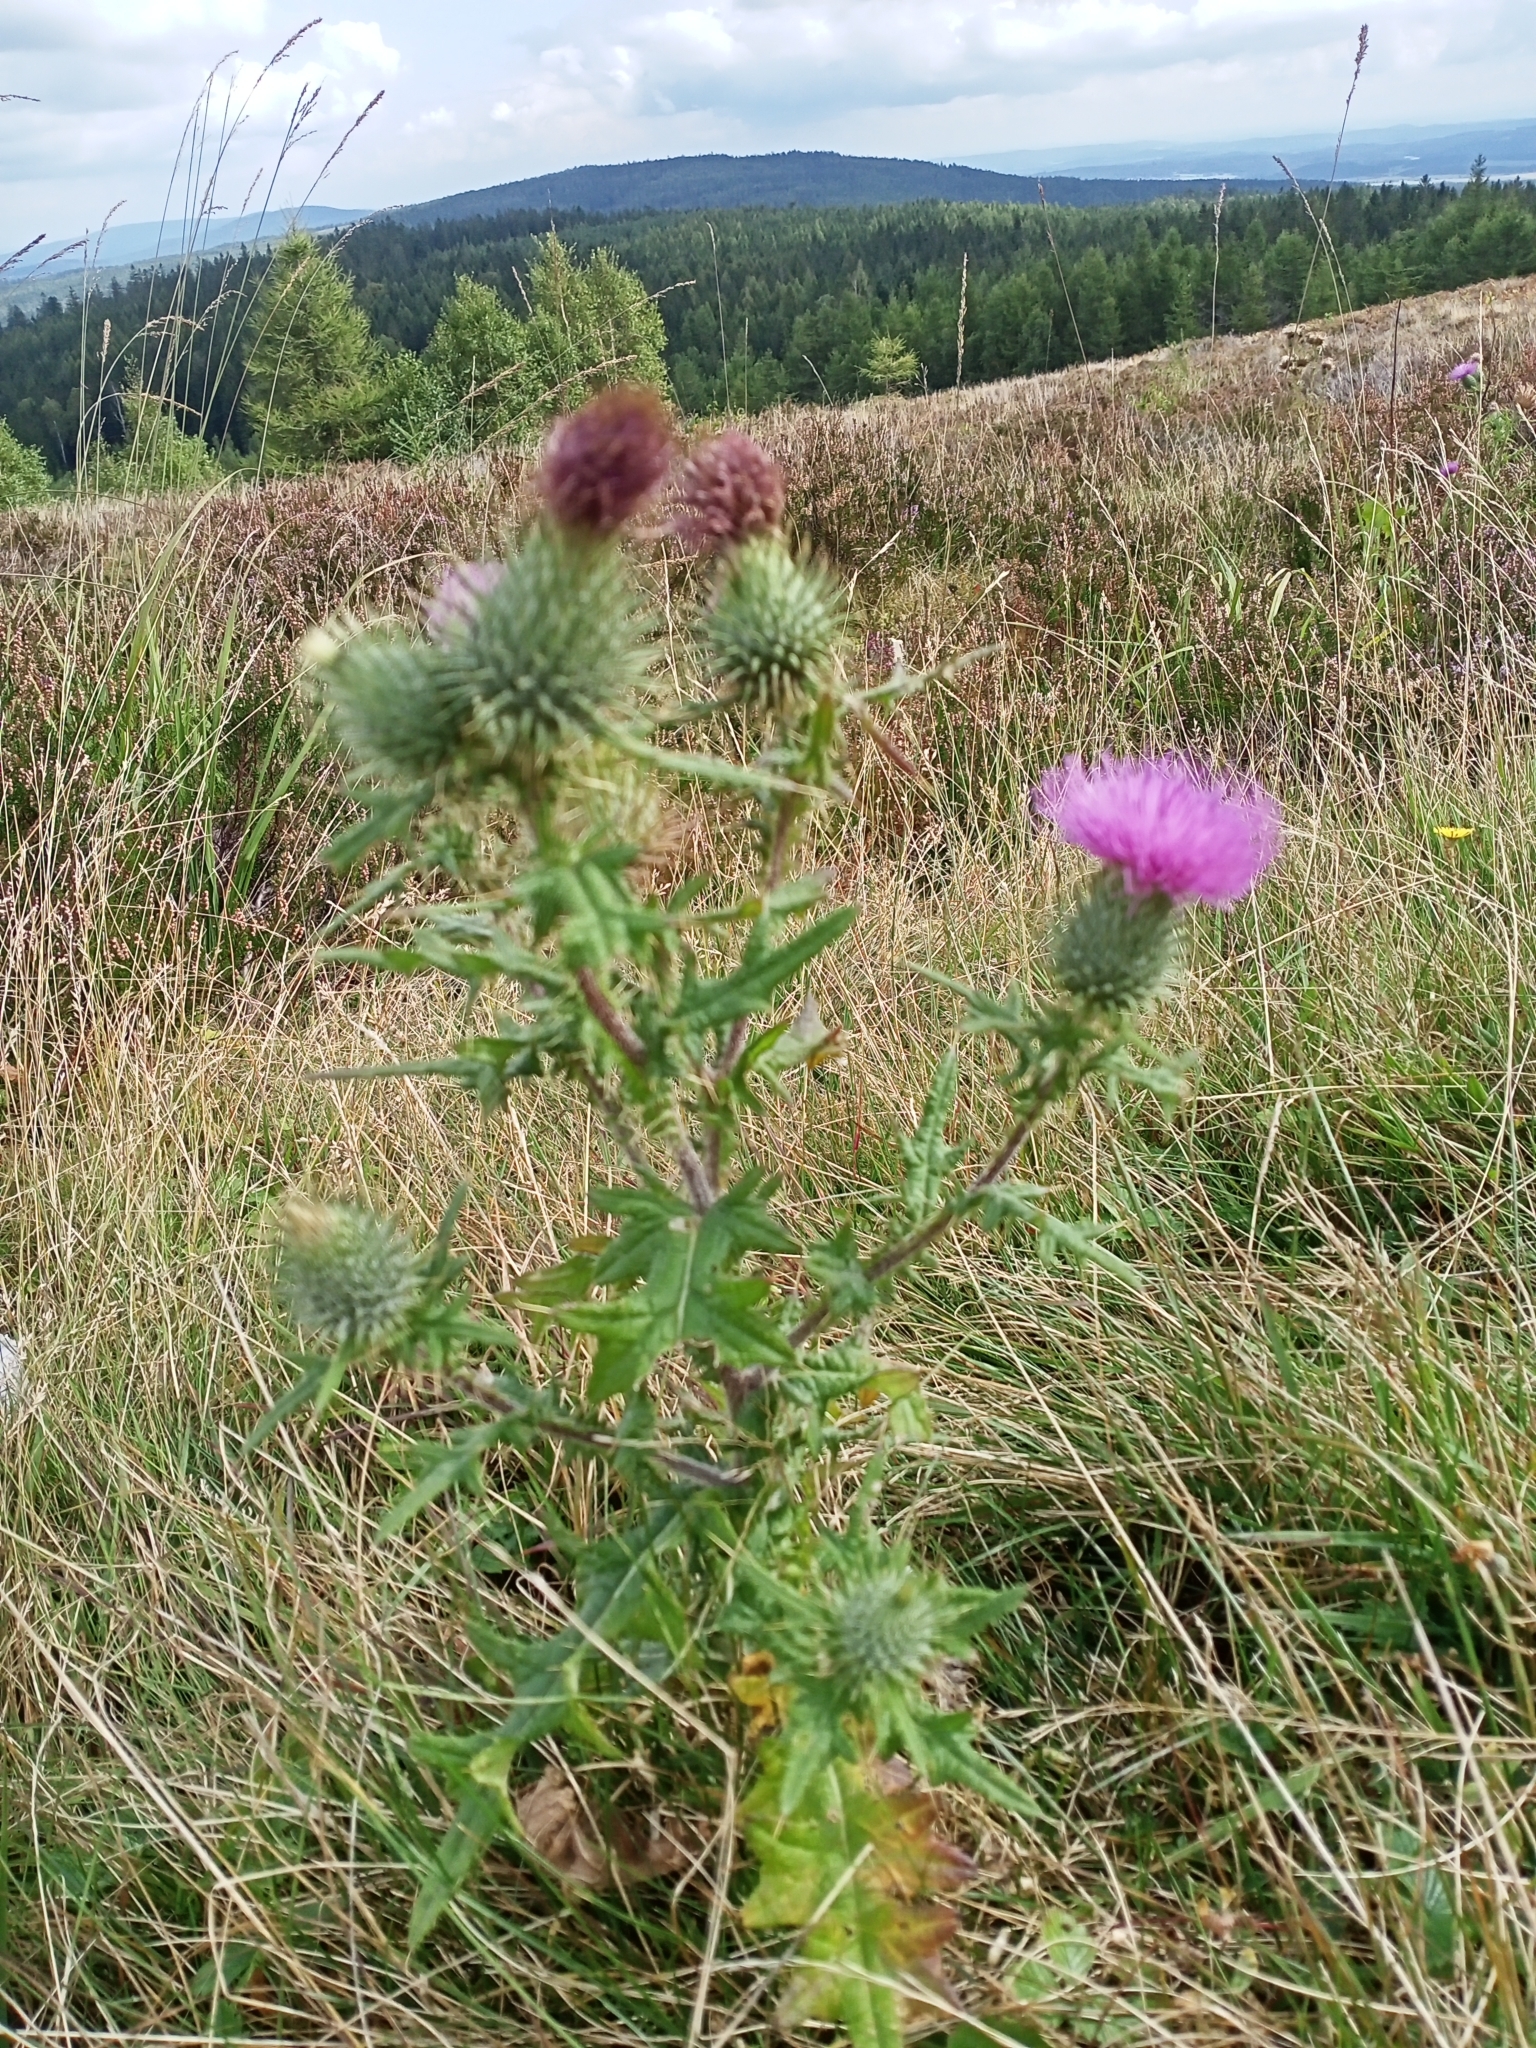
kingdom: Plantae
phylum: Tracheophyta
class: Magnoliopsida
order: Asterales
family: Asteraceae
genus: Cirsium
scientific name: Cirsium vulgare
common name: Bull thistle
